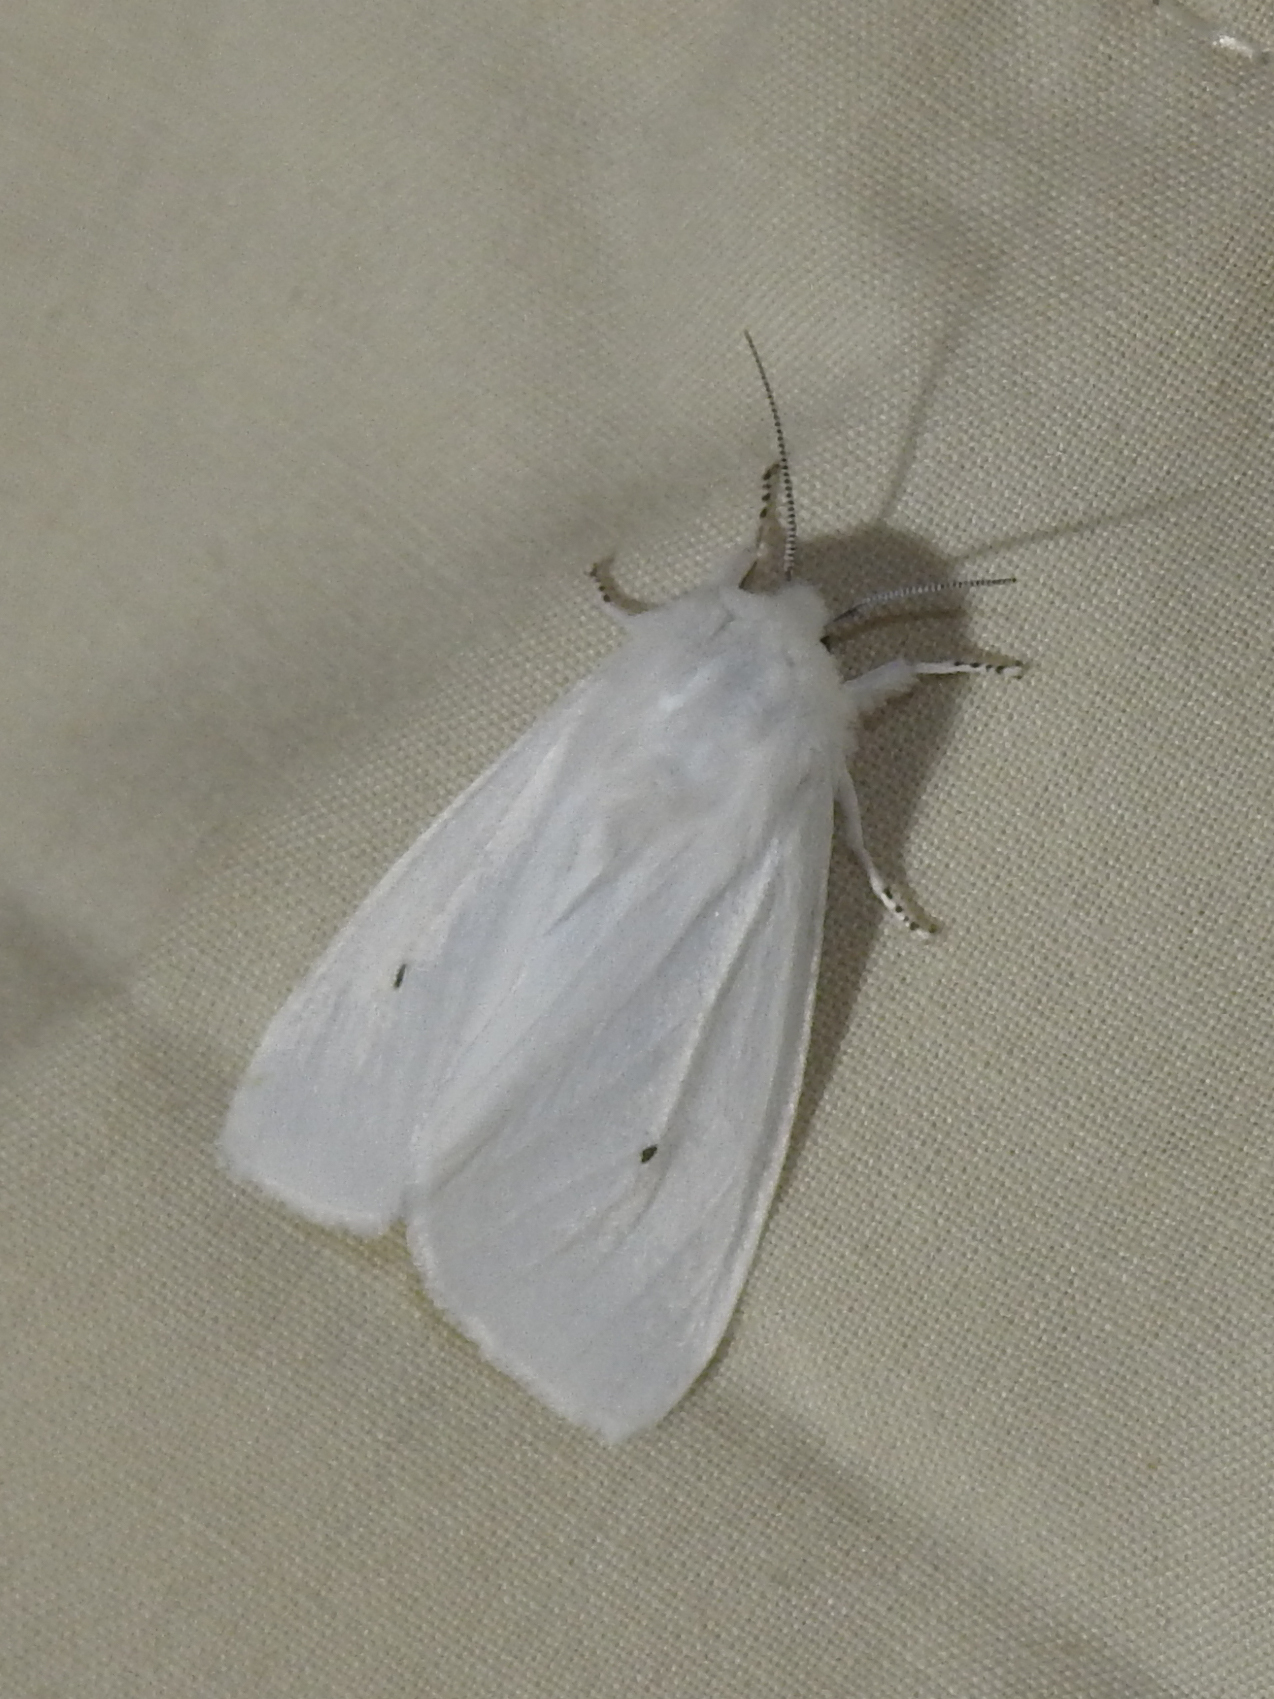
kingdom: Animalia
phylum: Arthropoda
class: Insecta
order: Lepidoptera
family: Erebidae
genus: Spilosoma
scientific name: Spilosoma virginica
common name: Virginia tiger moth
